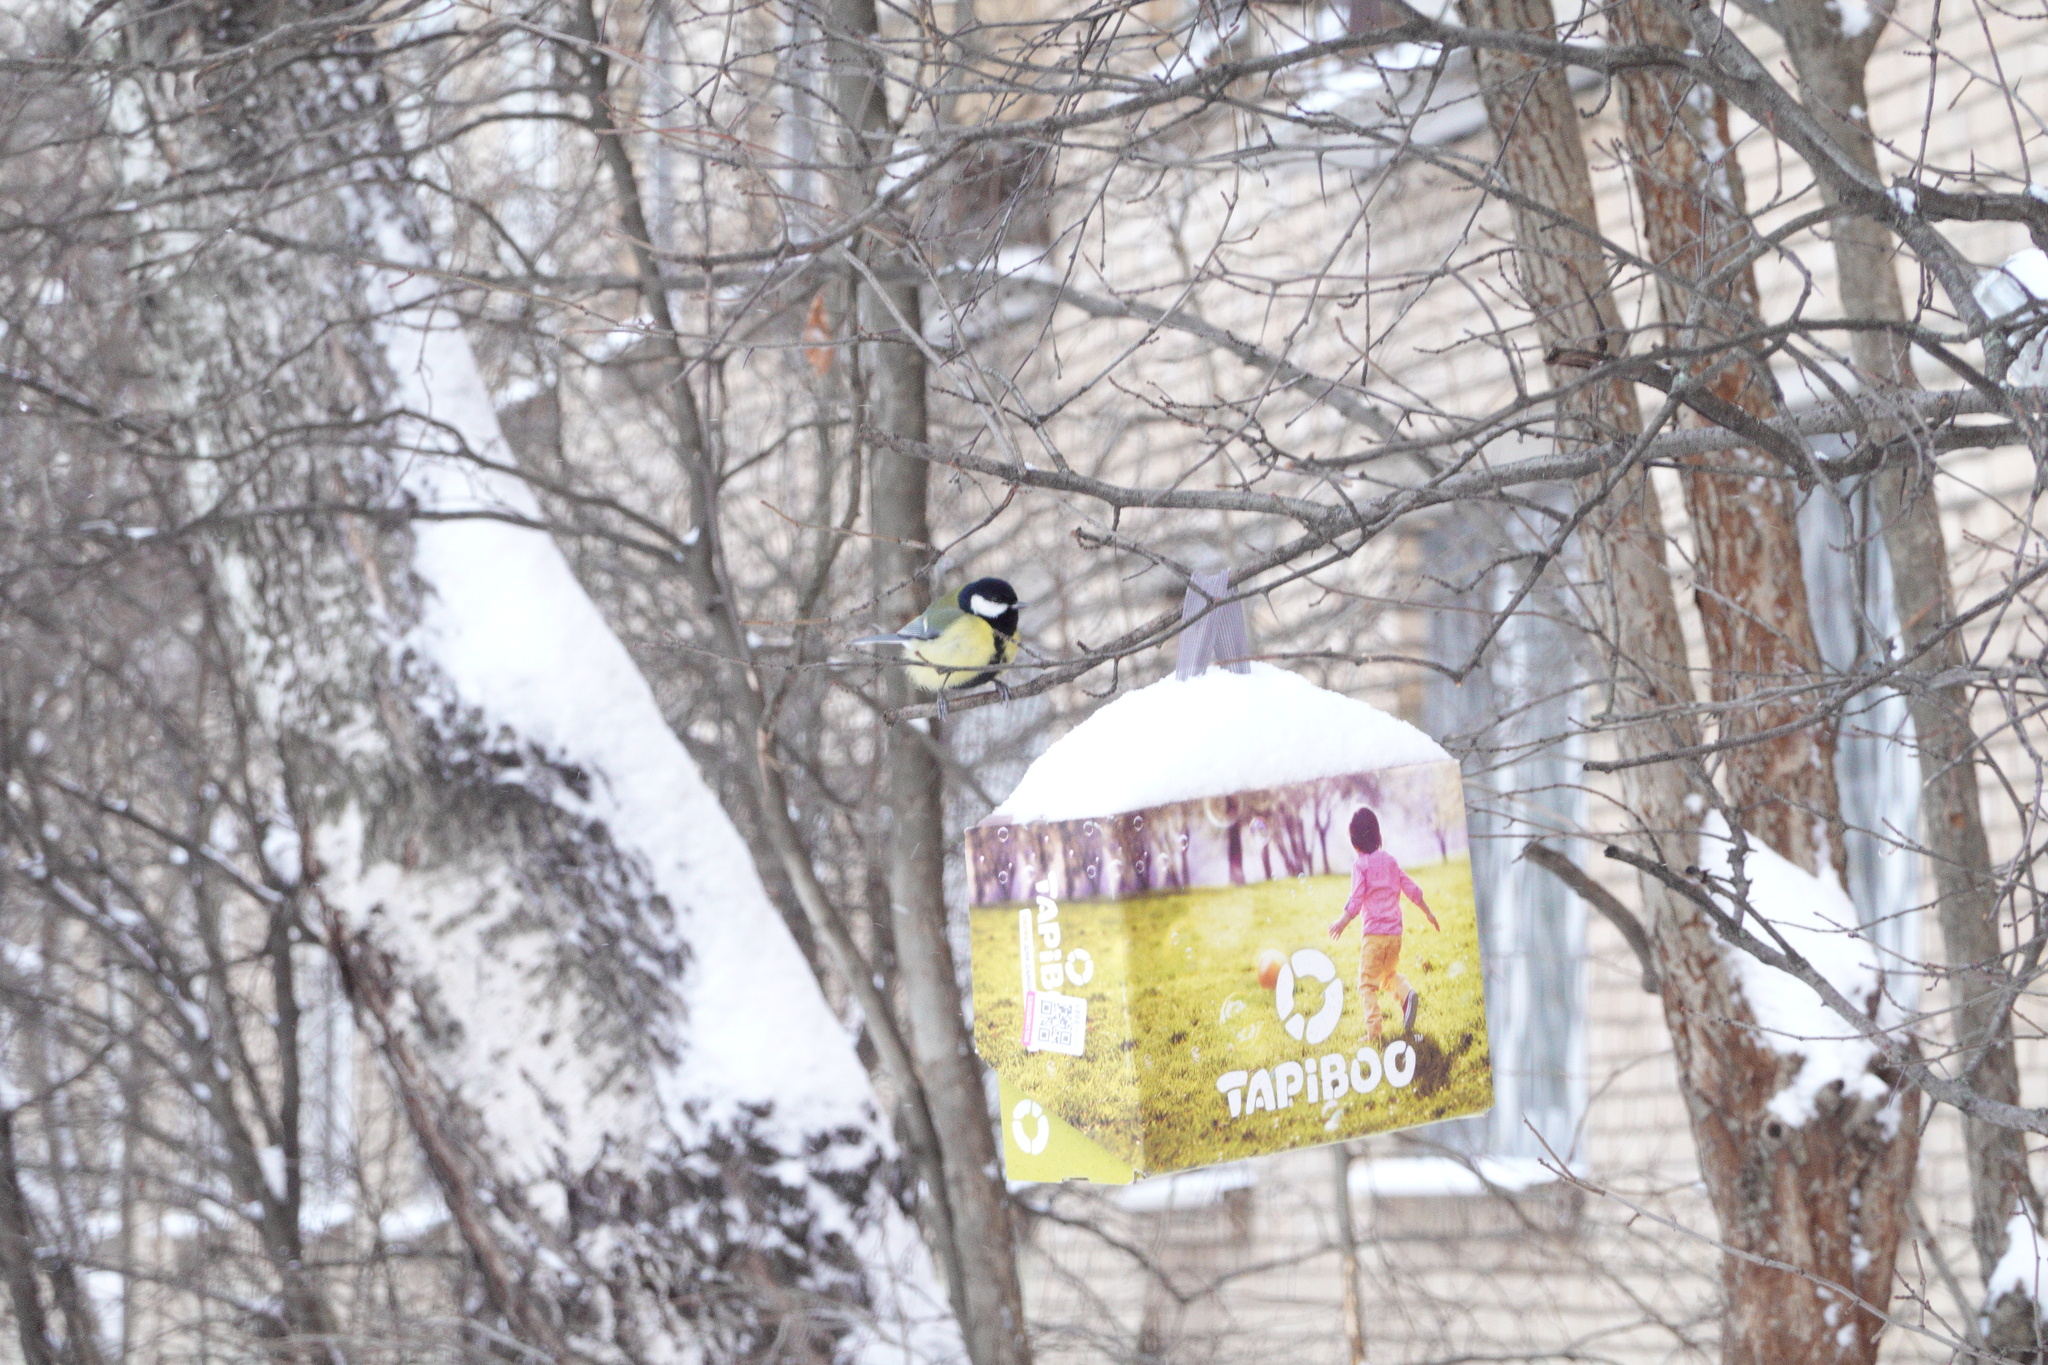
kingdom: Animalia
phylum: Chordata
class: Aves
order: Passeriformes
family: Paridae
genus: Parus
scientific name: Parus major
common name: Great tit
